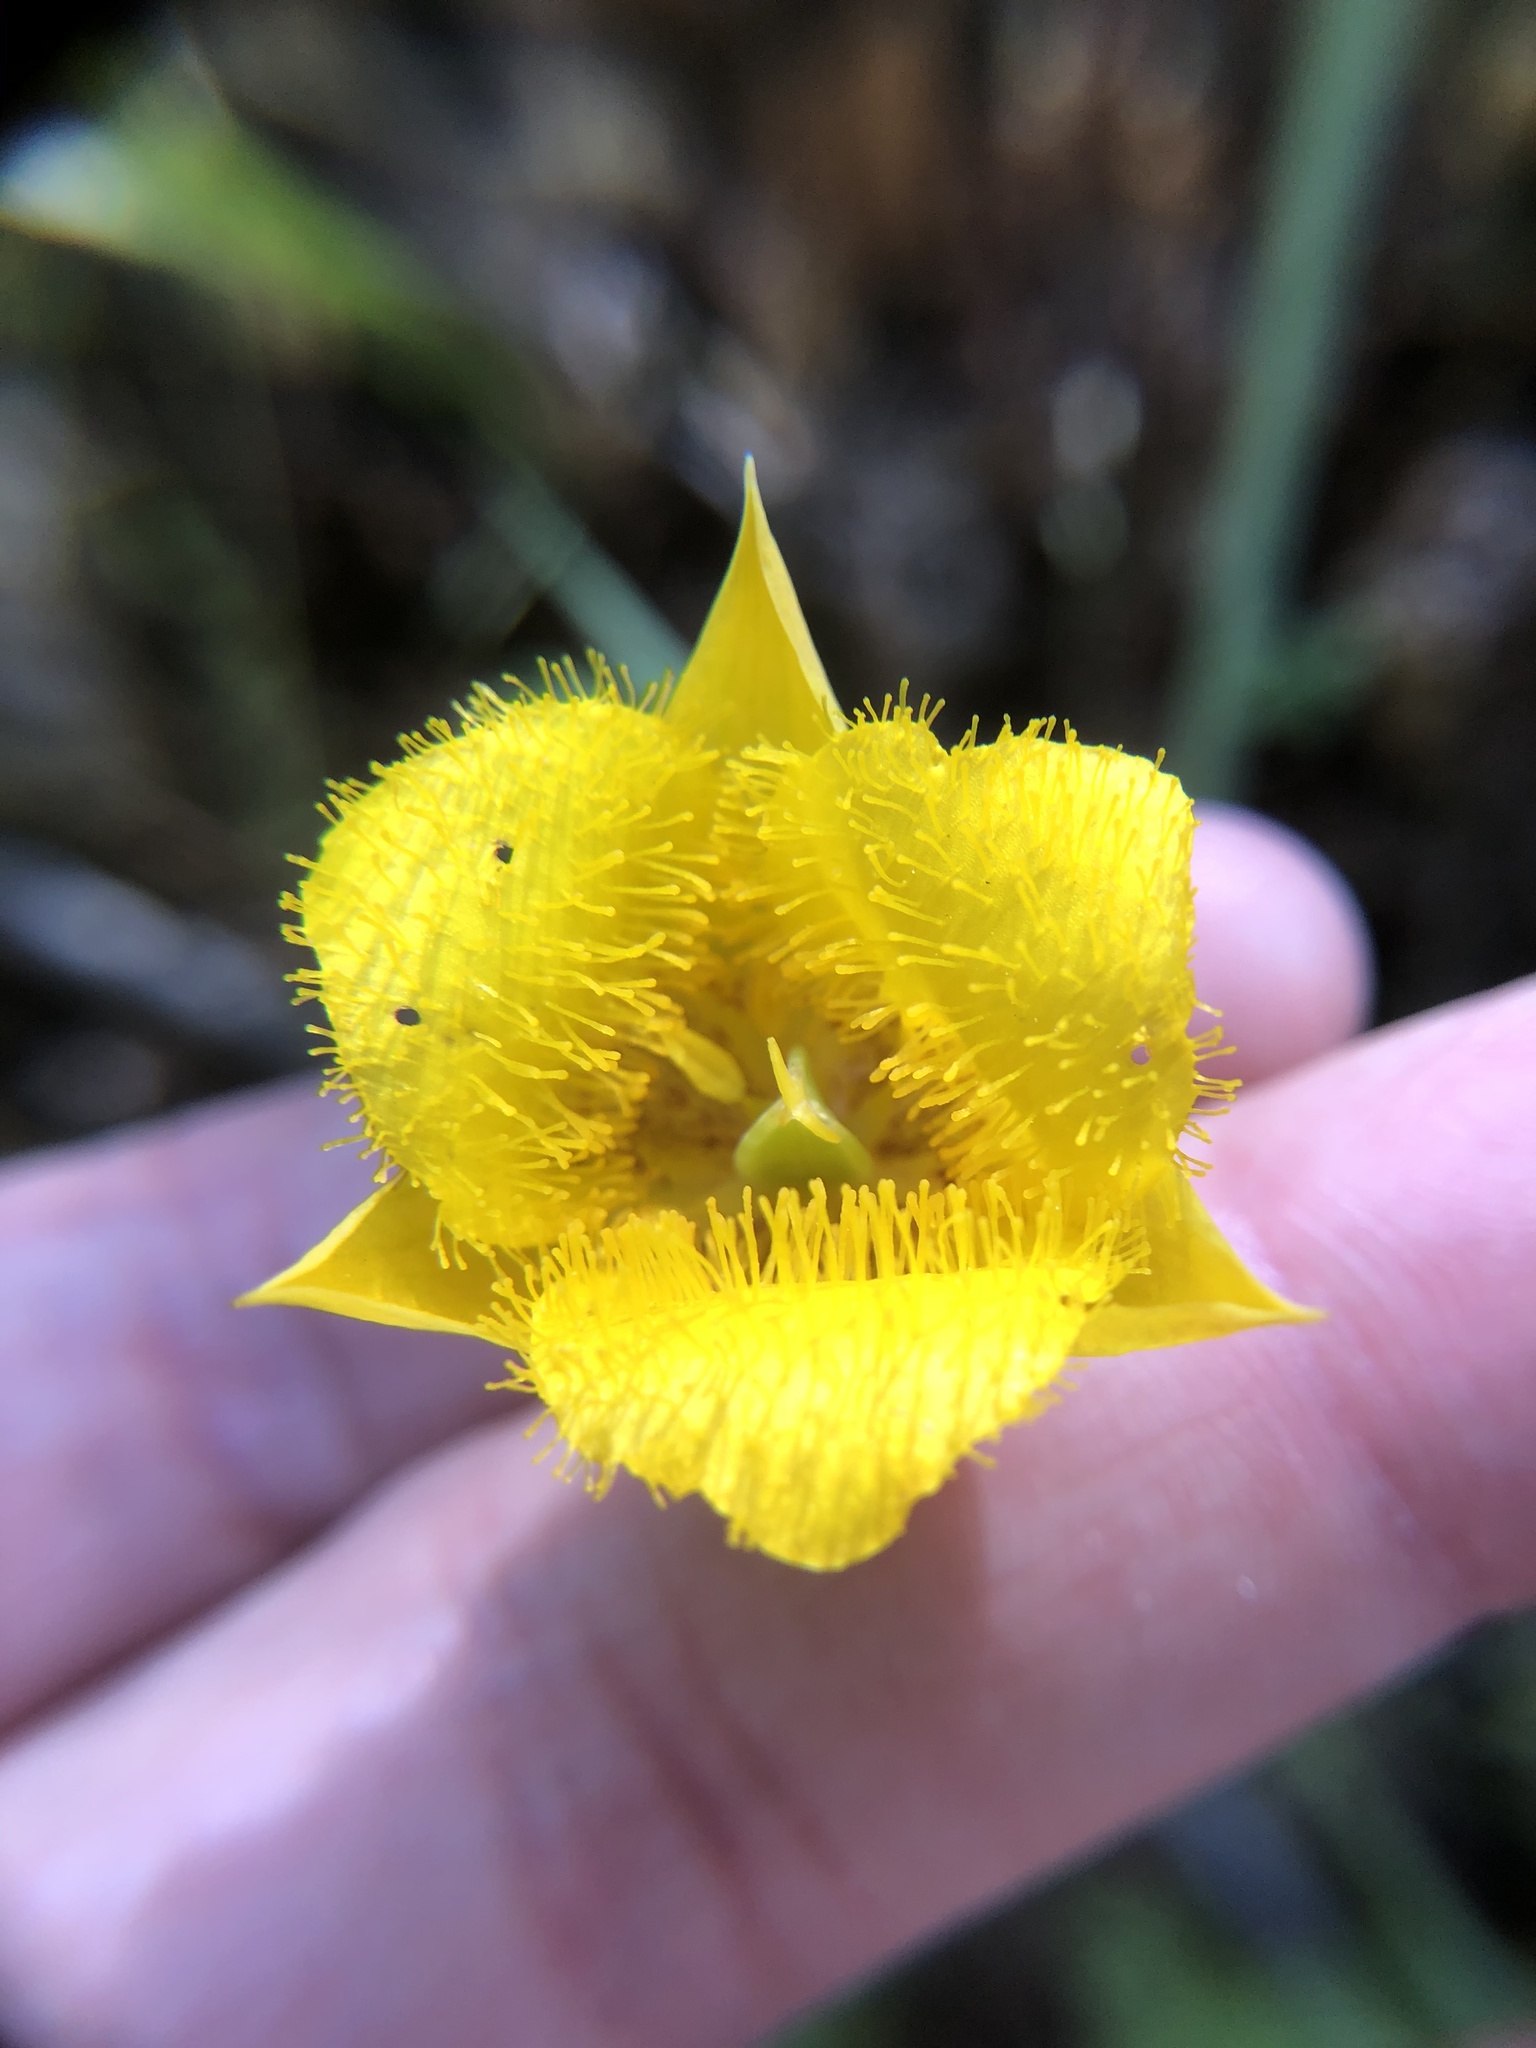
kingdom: Plantae
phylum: Tracheophyta
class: Liliopsida
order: Liliales
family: Liliaceae
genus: Calochortus
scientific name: Calochortus monophyllus
